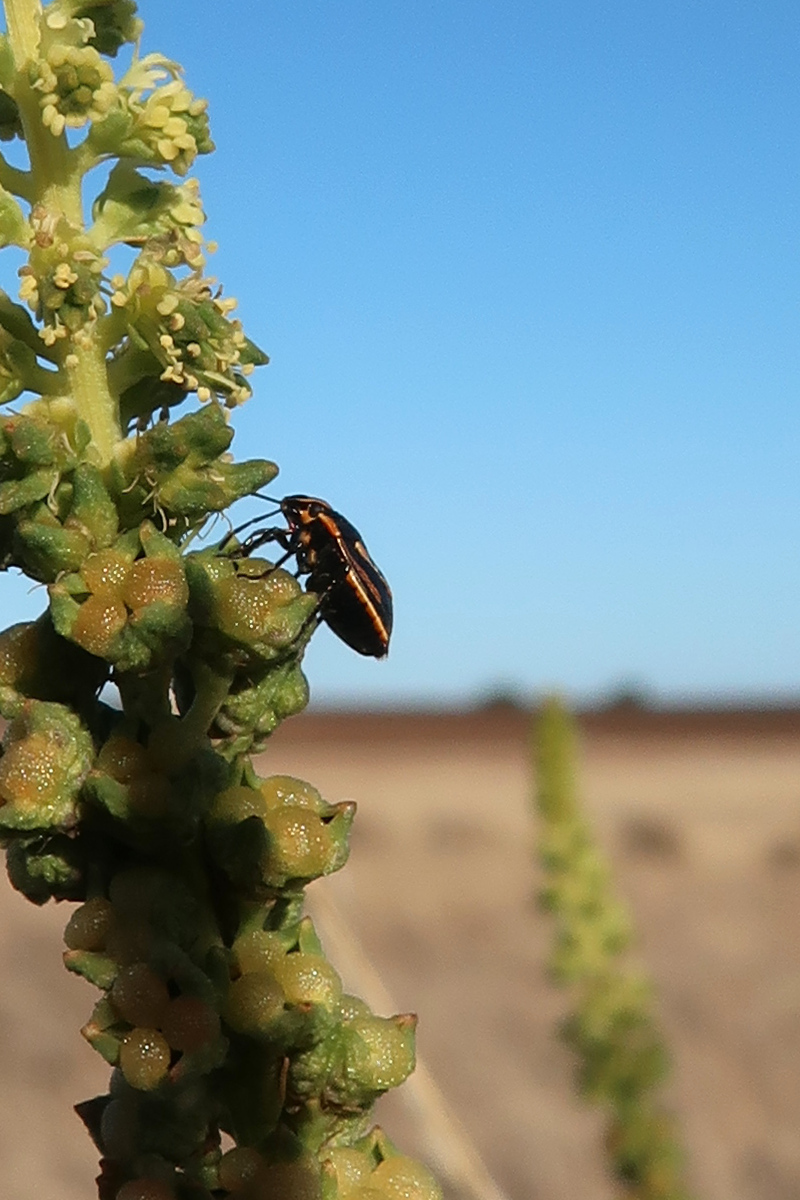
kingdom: Animalia
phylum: Arthropoda
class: Insecta
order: Hemiptera
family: Pentatomidae
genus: Anaxilaus
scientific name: Anaxilaus
